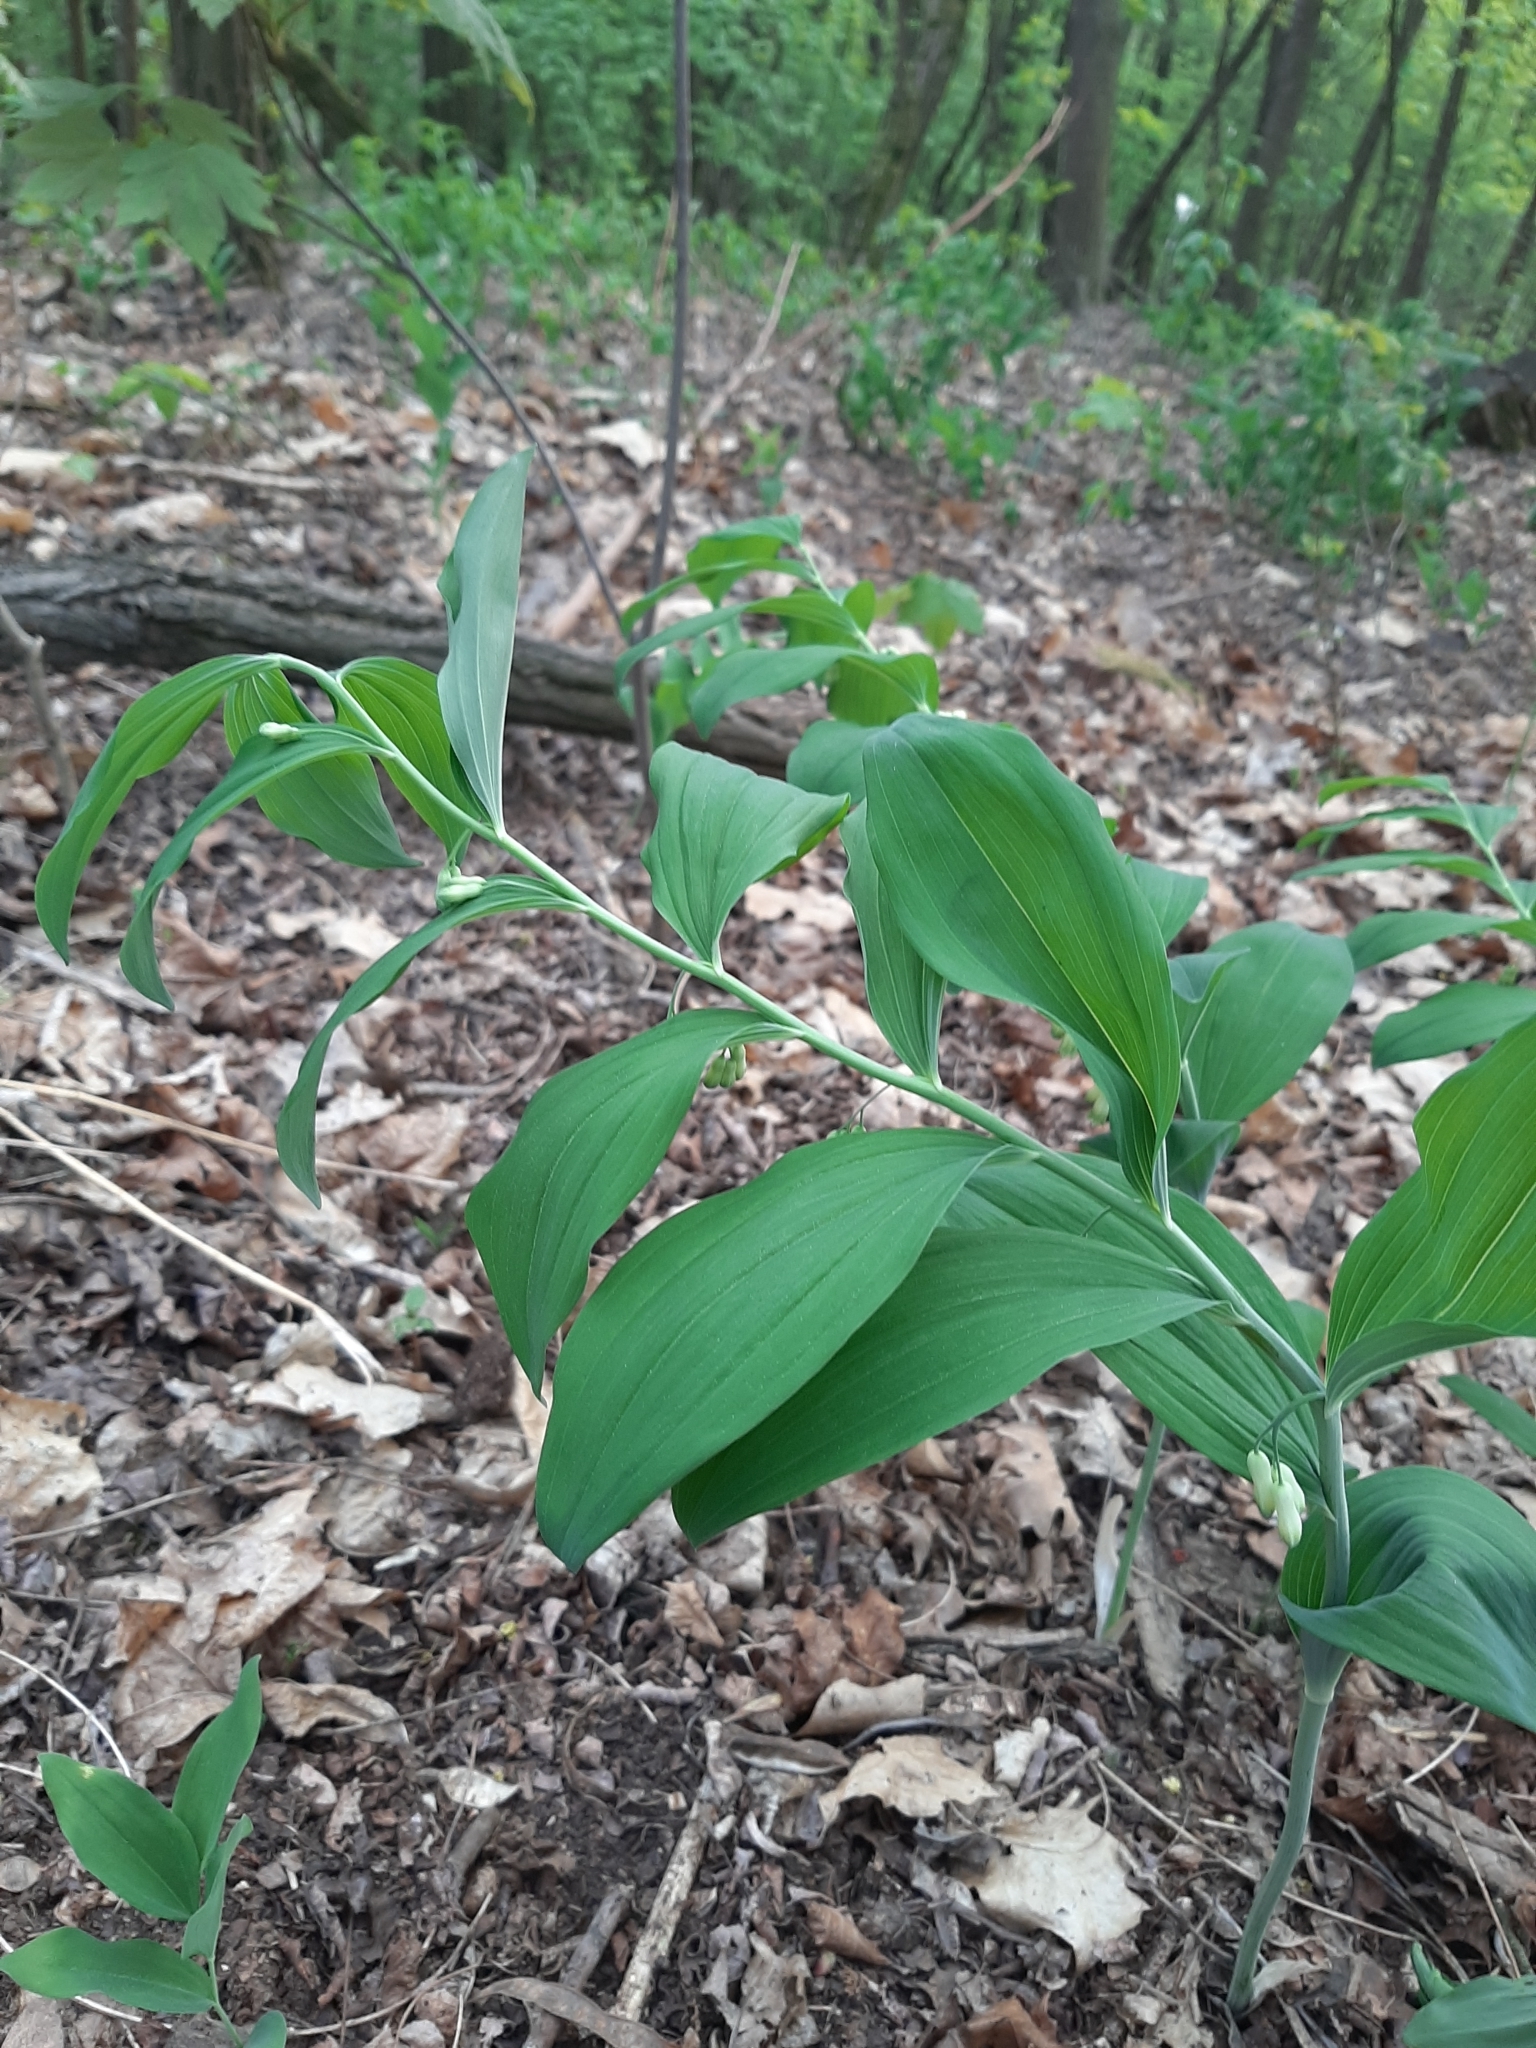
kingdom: Plantae
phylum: Tracheophyta
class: Liliopsida
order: Asparagales
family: Asparagaceae
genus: Polygonatum
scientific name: Polygonatum multiflorum
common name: Solomon's-seal
